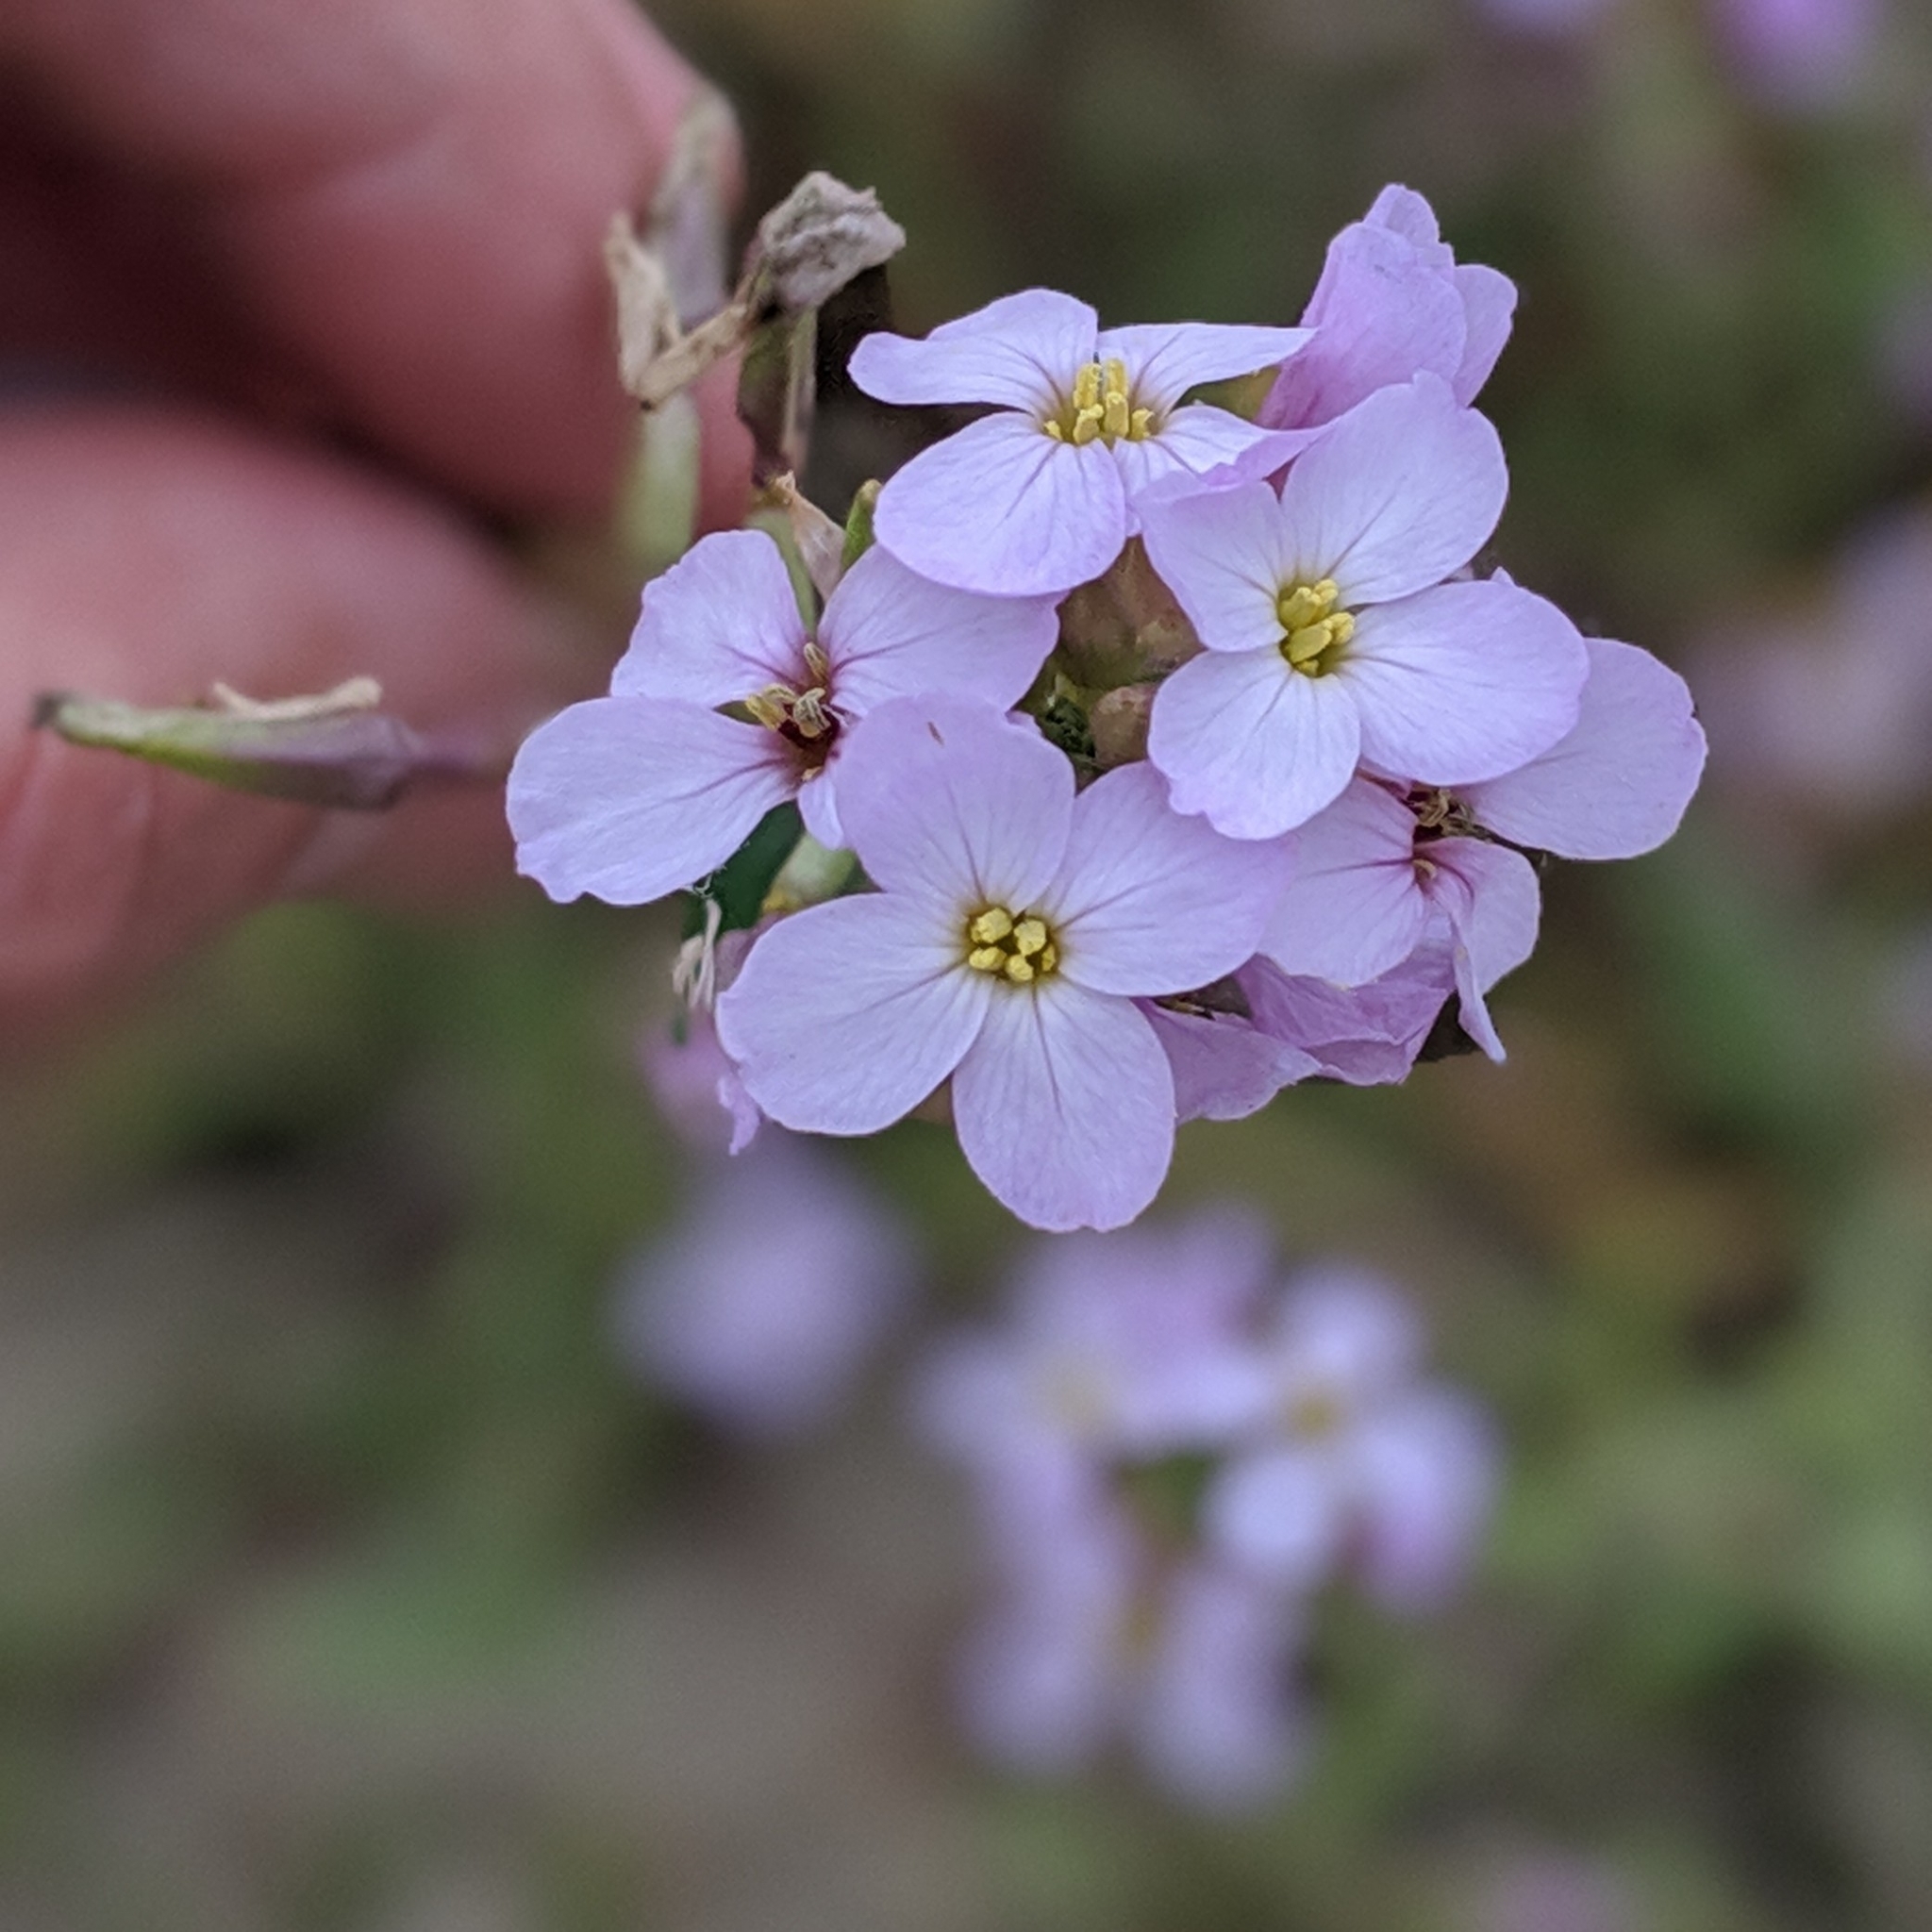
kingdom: Plantae
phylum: Tracheophyta
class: Magnoliopsida
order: Brassicales
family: Brassicaceae
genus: Cakile
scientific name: Cakile maritima
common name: Sea rocket
